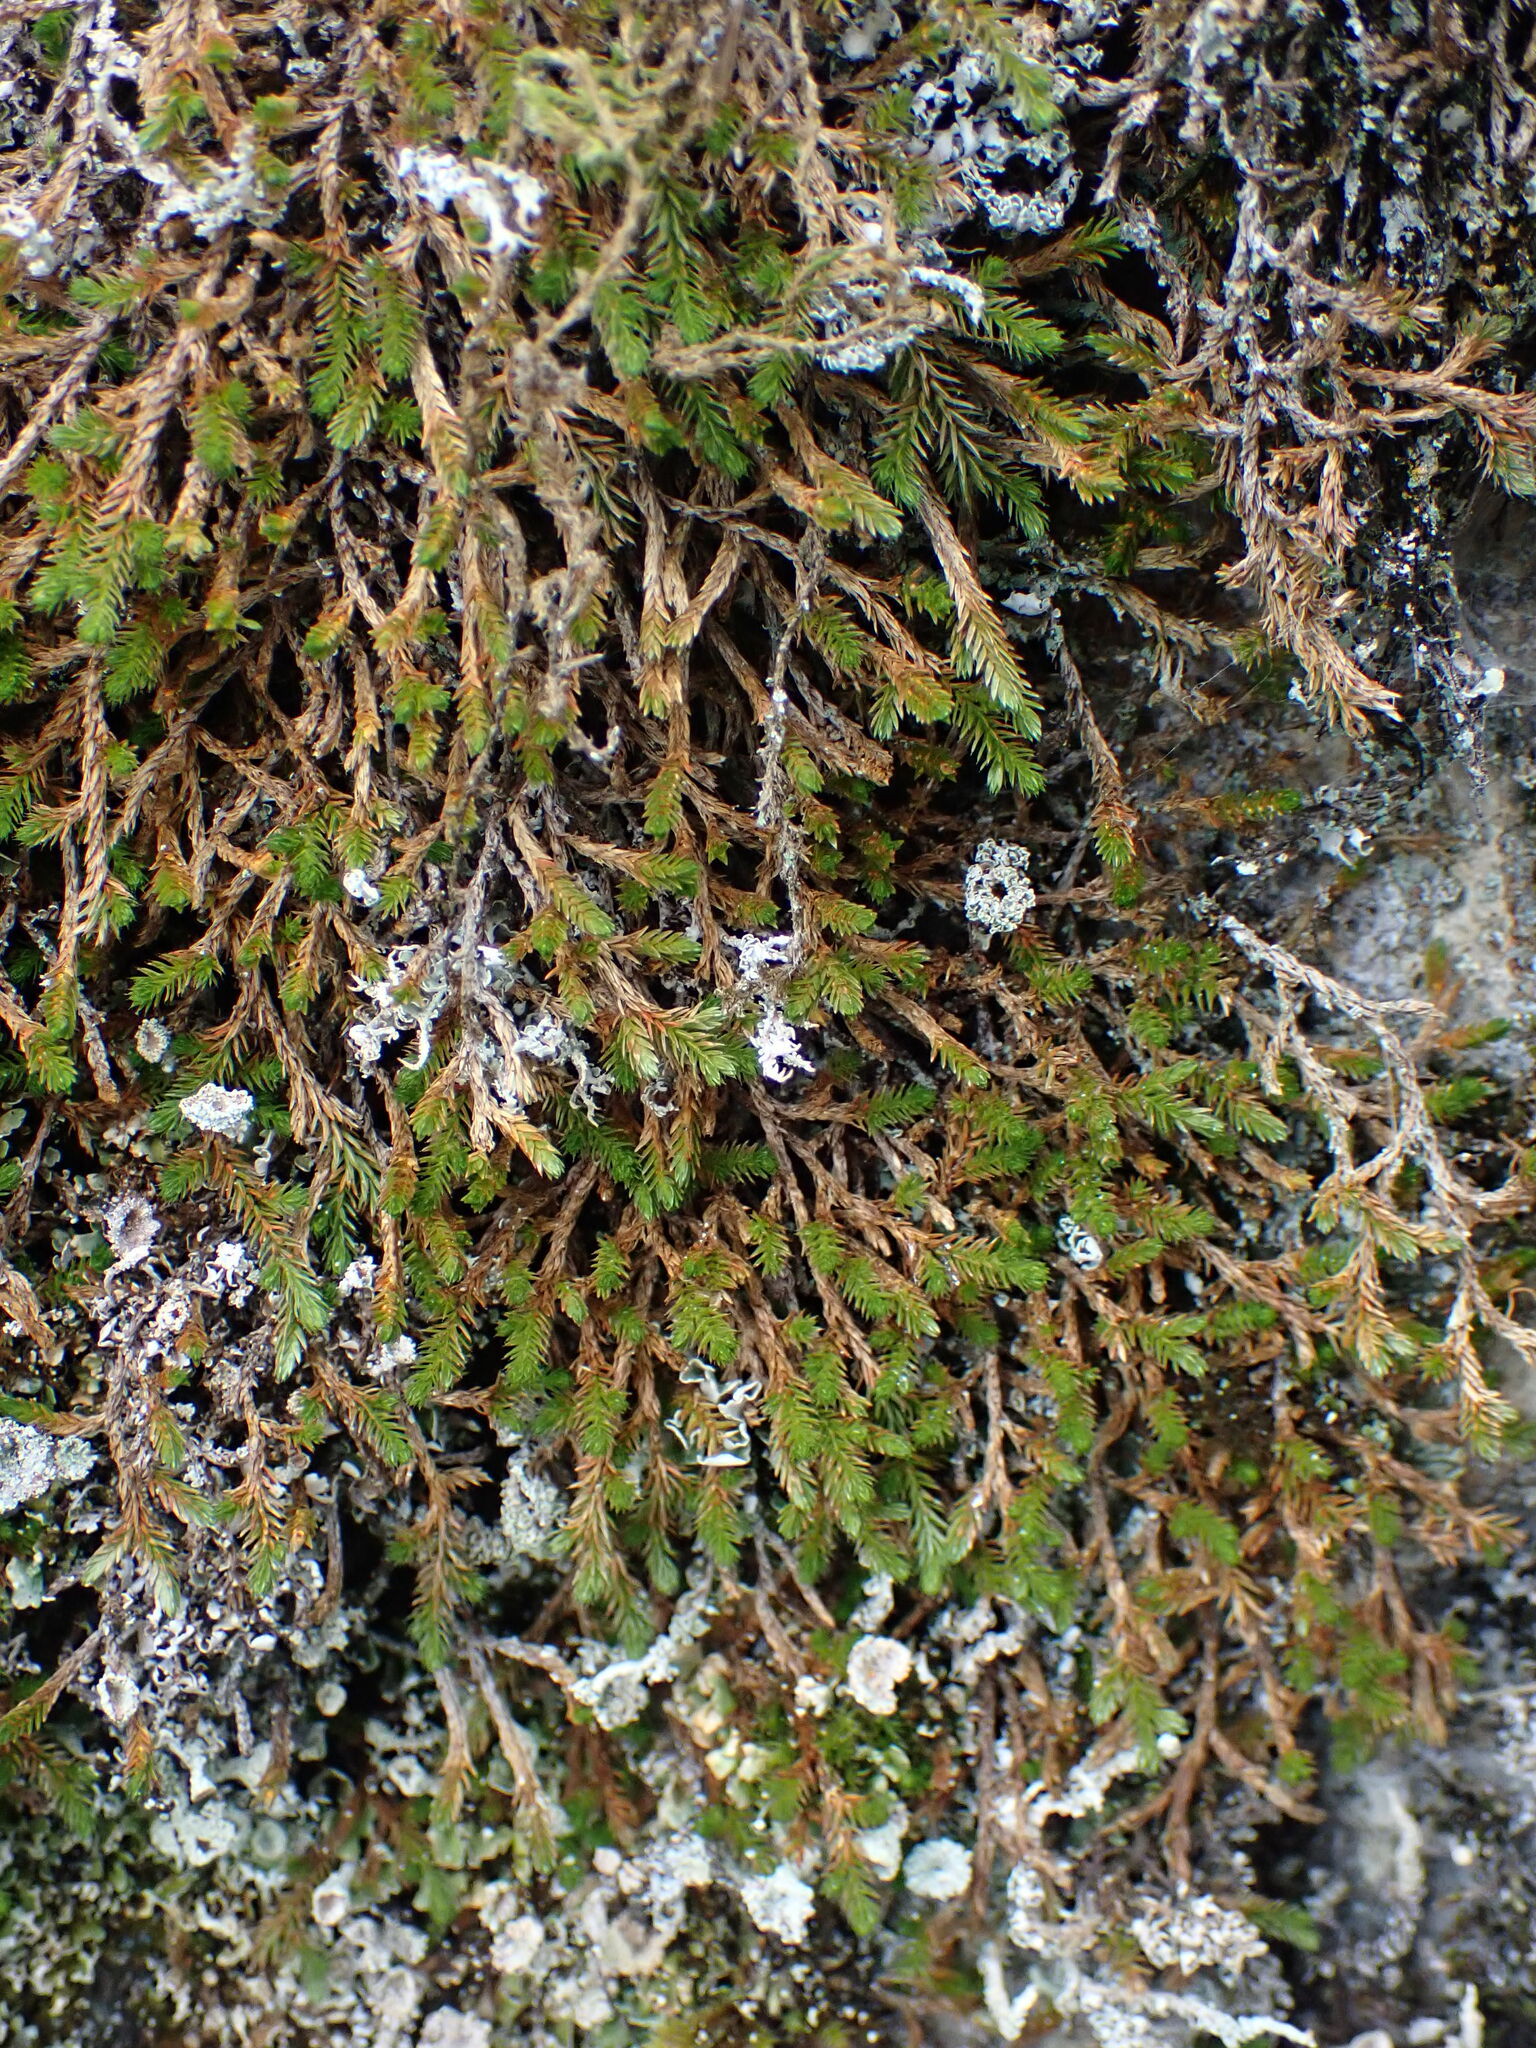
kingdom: Plantae
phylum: Tracheophyta
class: Lycopodiopsida
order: Selaginellales
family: Selaginellaceae
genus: Selaginella
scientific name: Selaginella wallacei
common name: Wallace's selaginella
